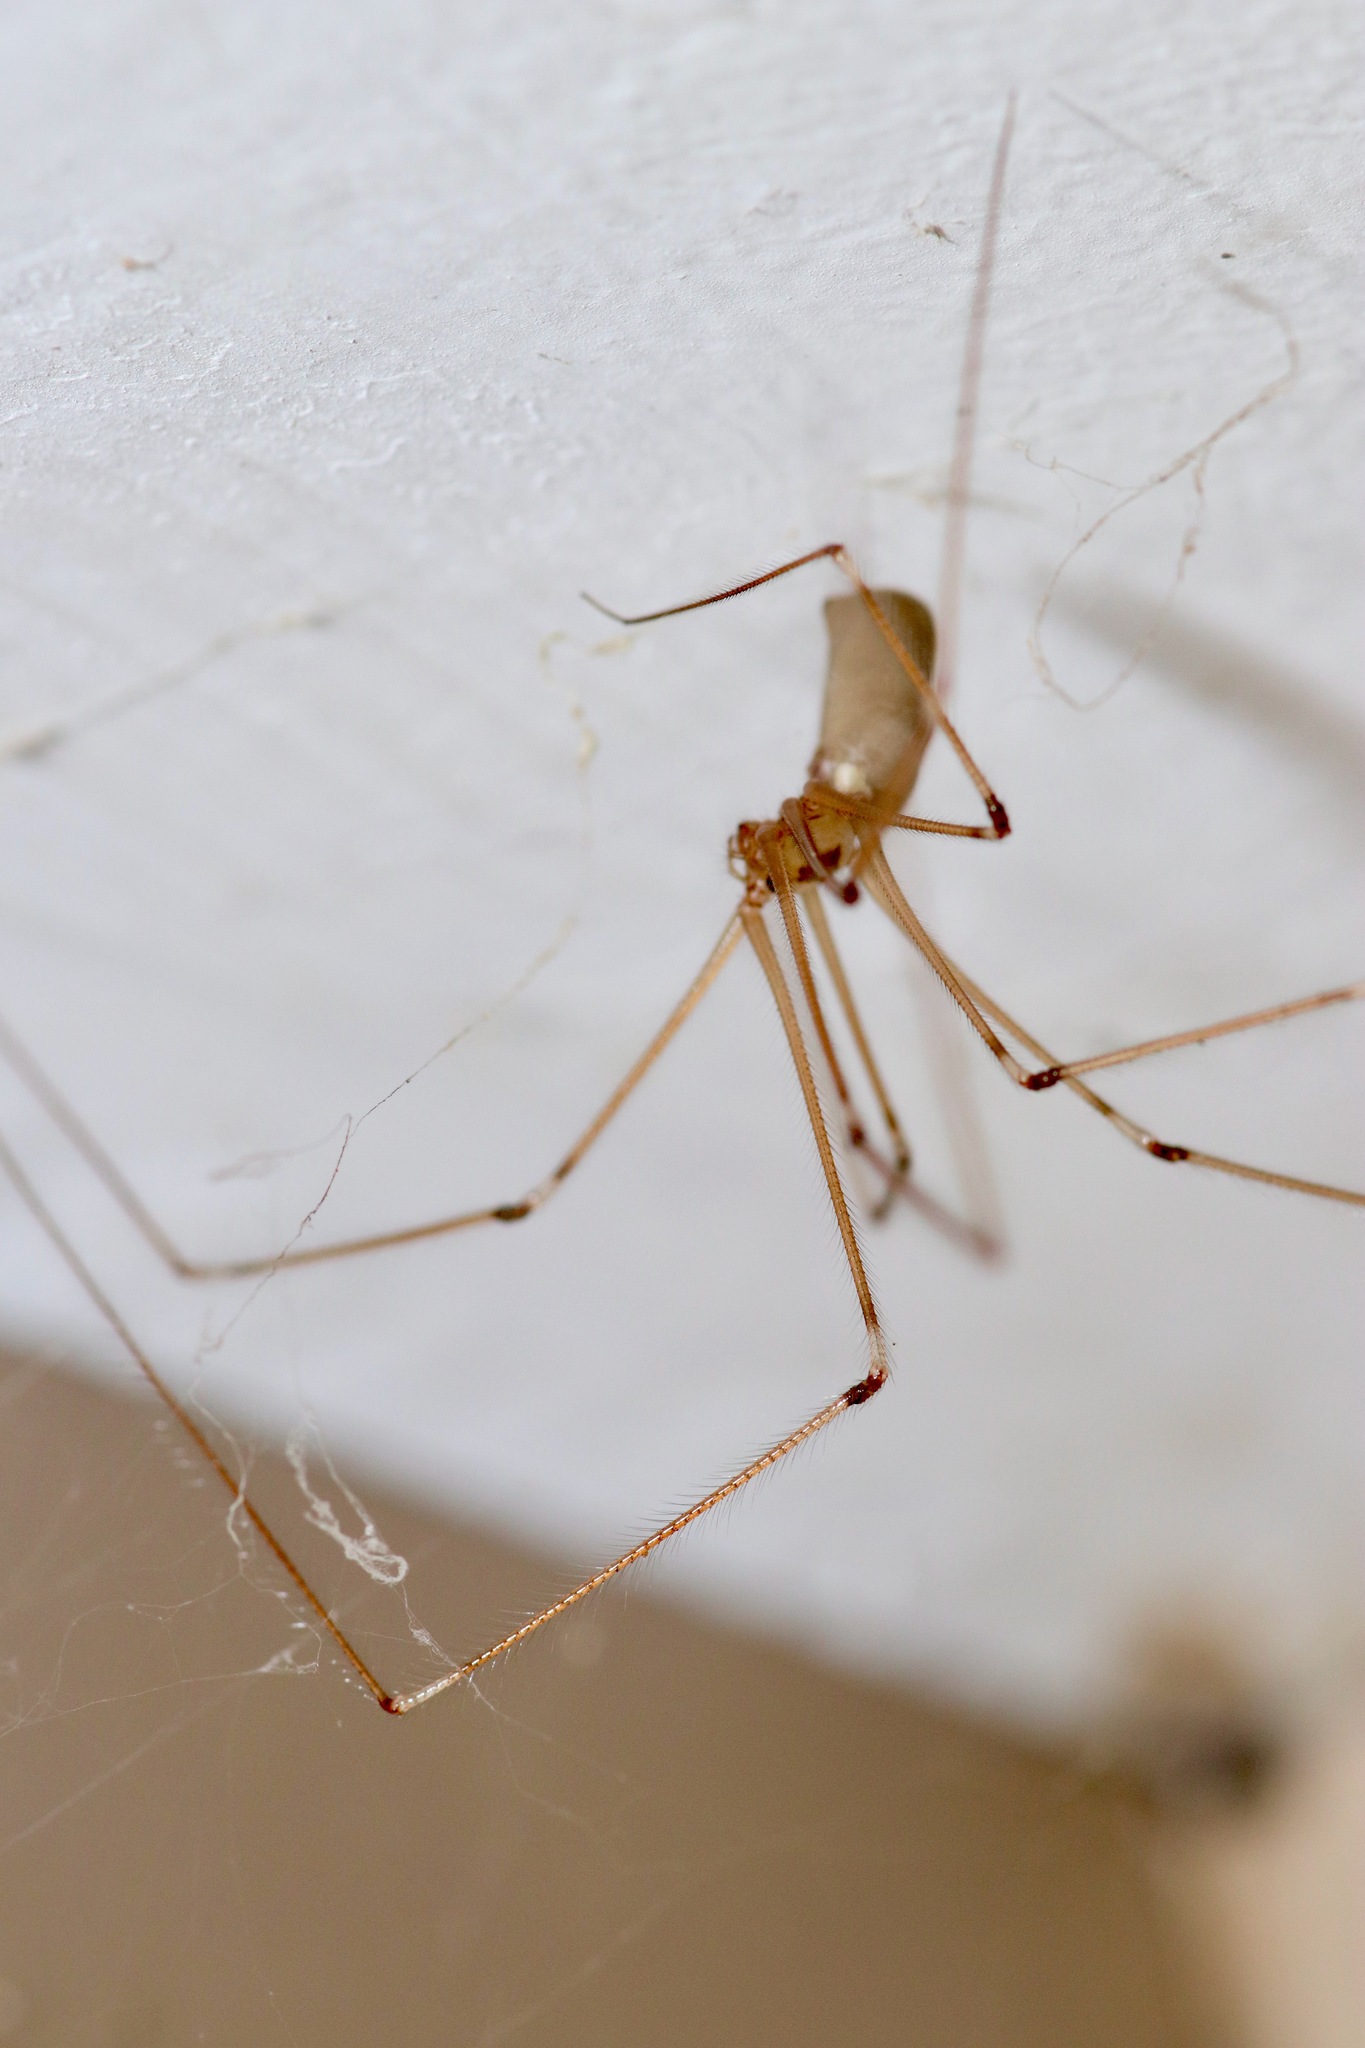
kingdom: Animalia
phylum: Arthropoda
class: Arachnida
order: Araneae
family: Pholcidae
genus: Pholcus
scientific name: Pholcus phalangioides
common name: Longbodied cellar spider
